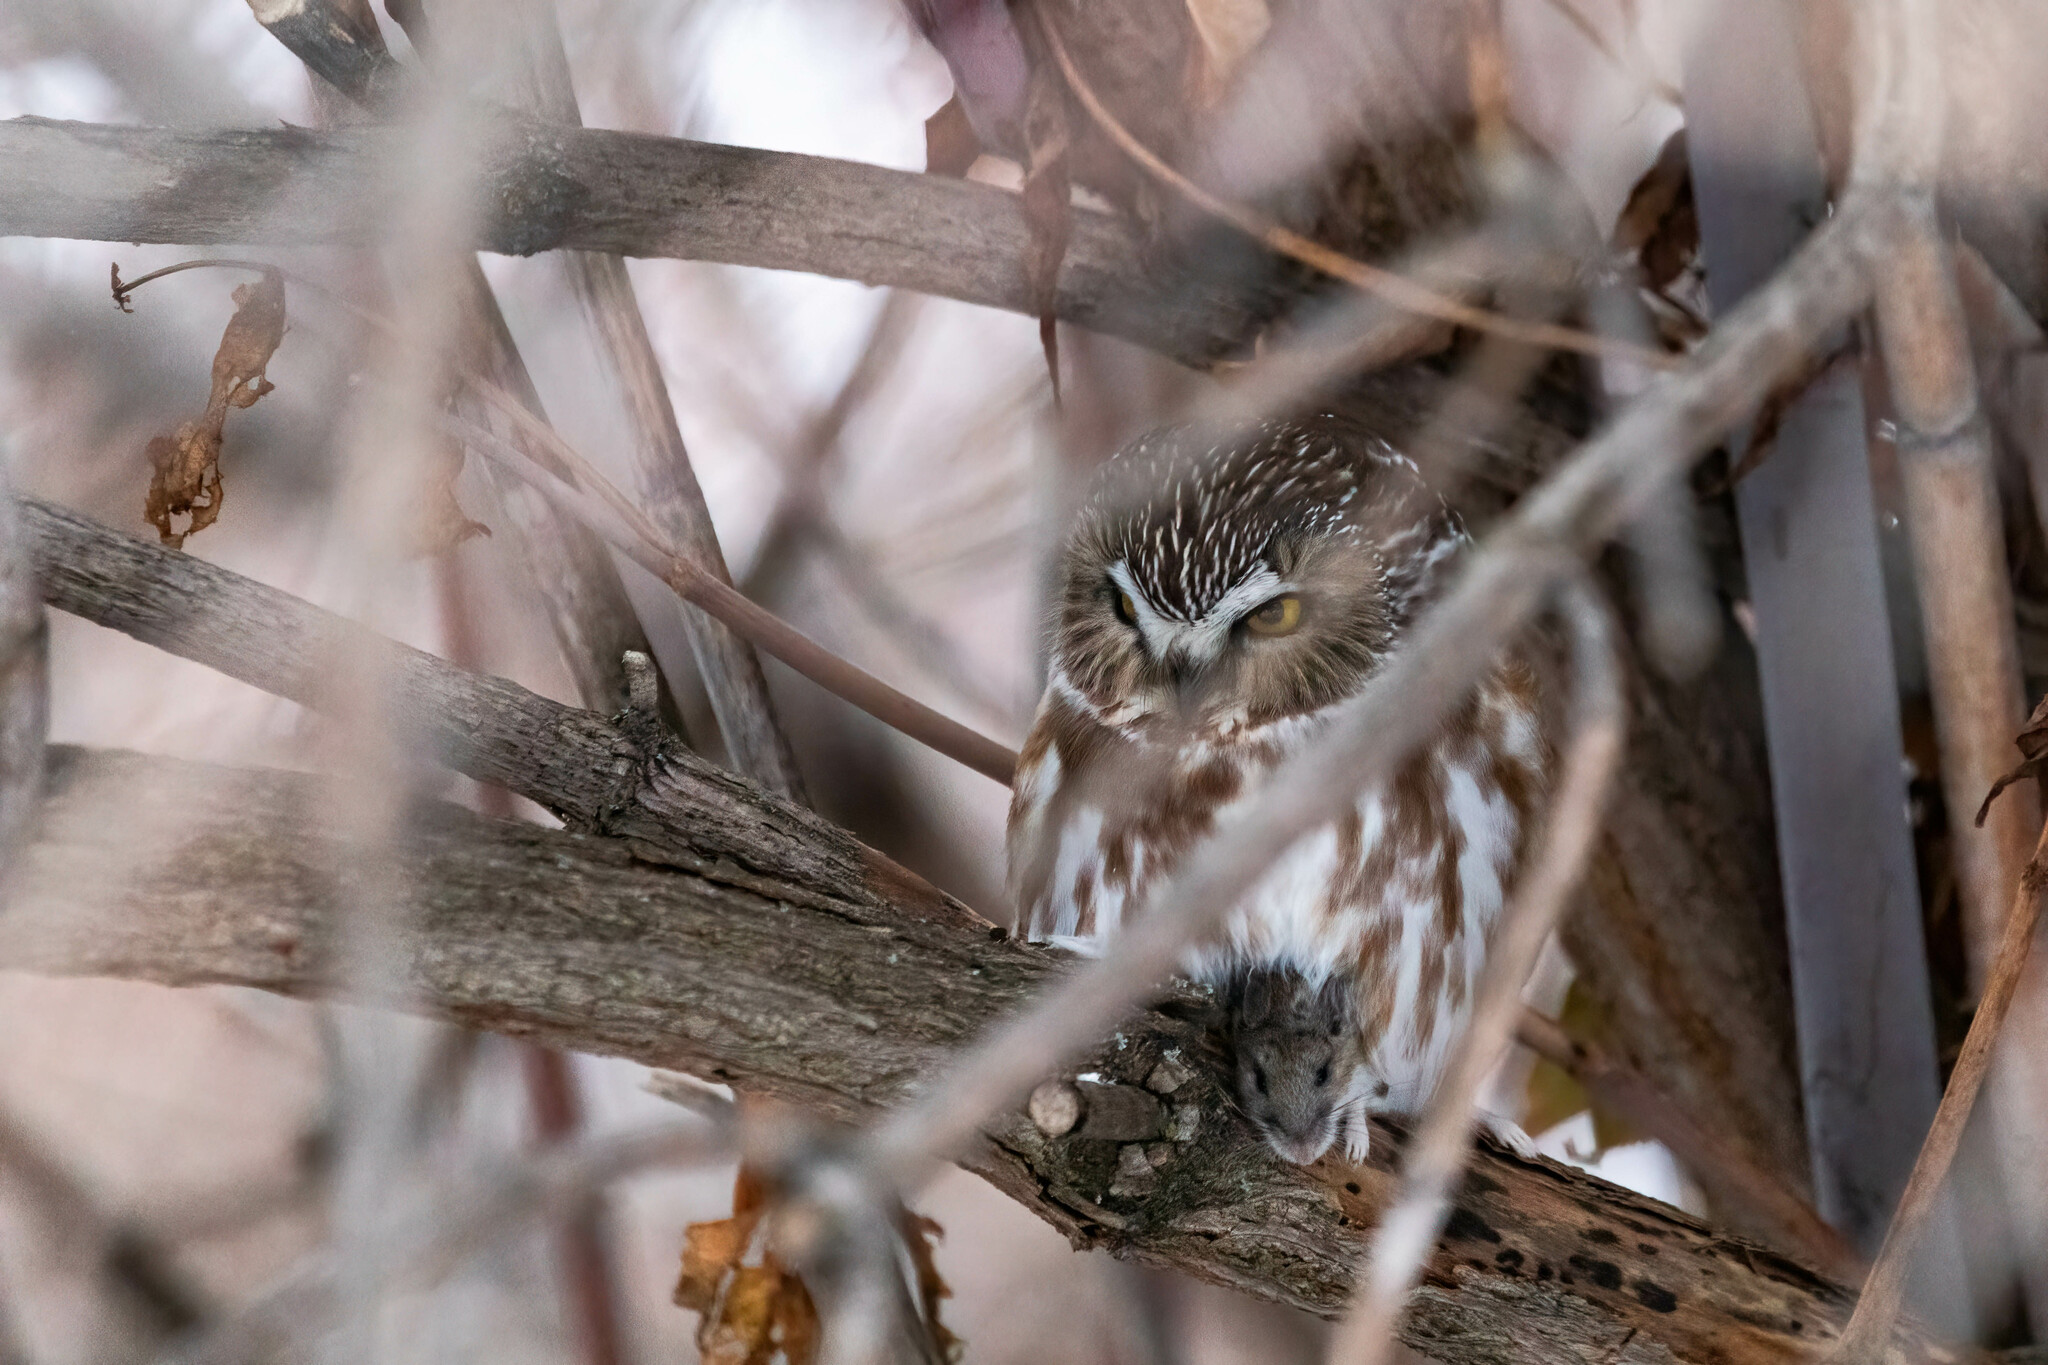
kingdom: Animalia
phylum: Chordata
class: Aves
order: Strigiformes
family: Strigidae
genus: Aegolius
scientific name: Aegolius acadicus
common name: Northern saw-whet owl
